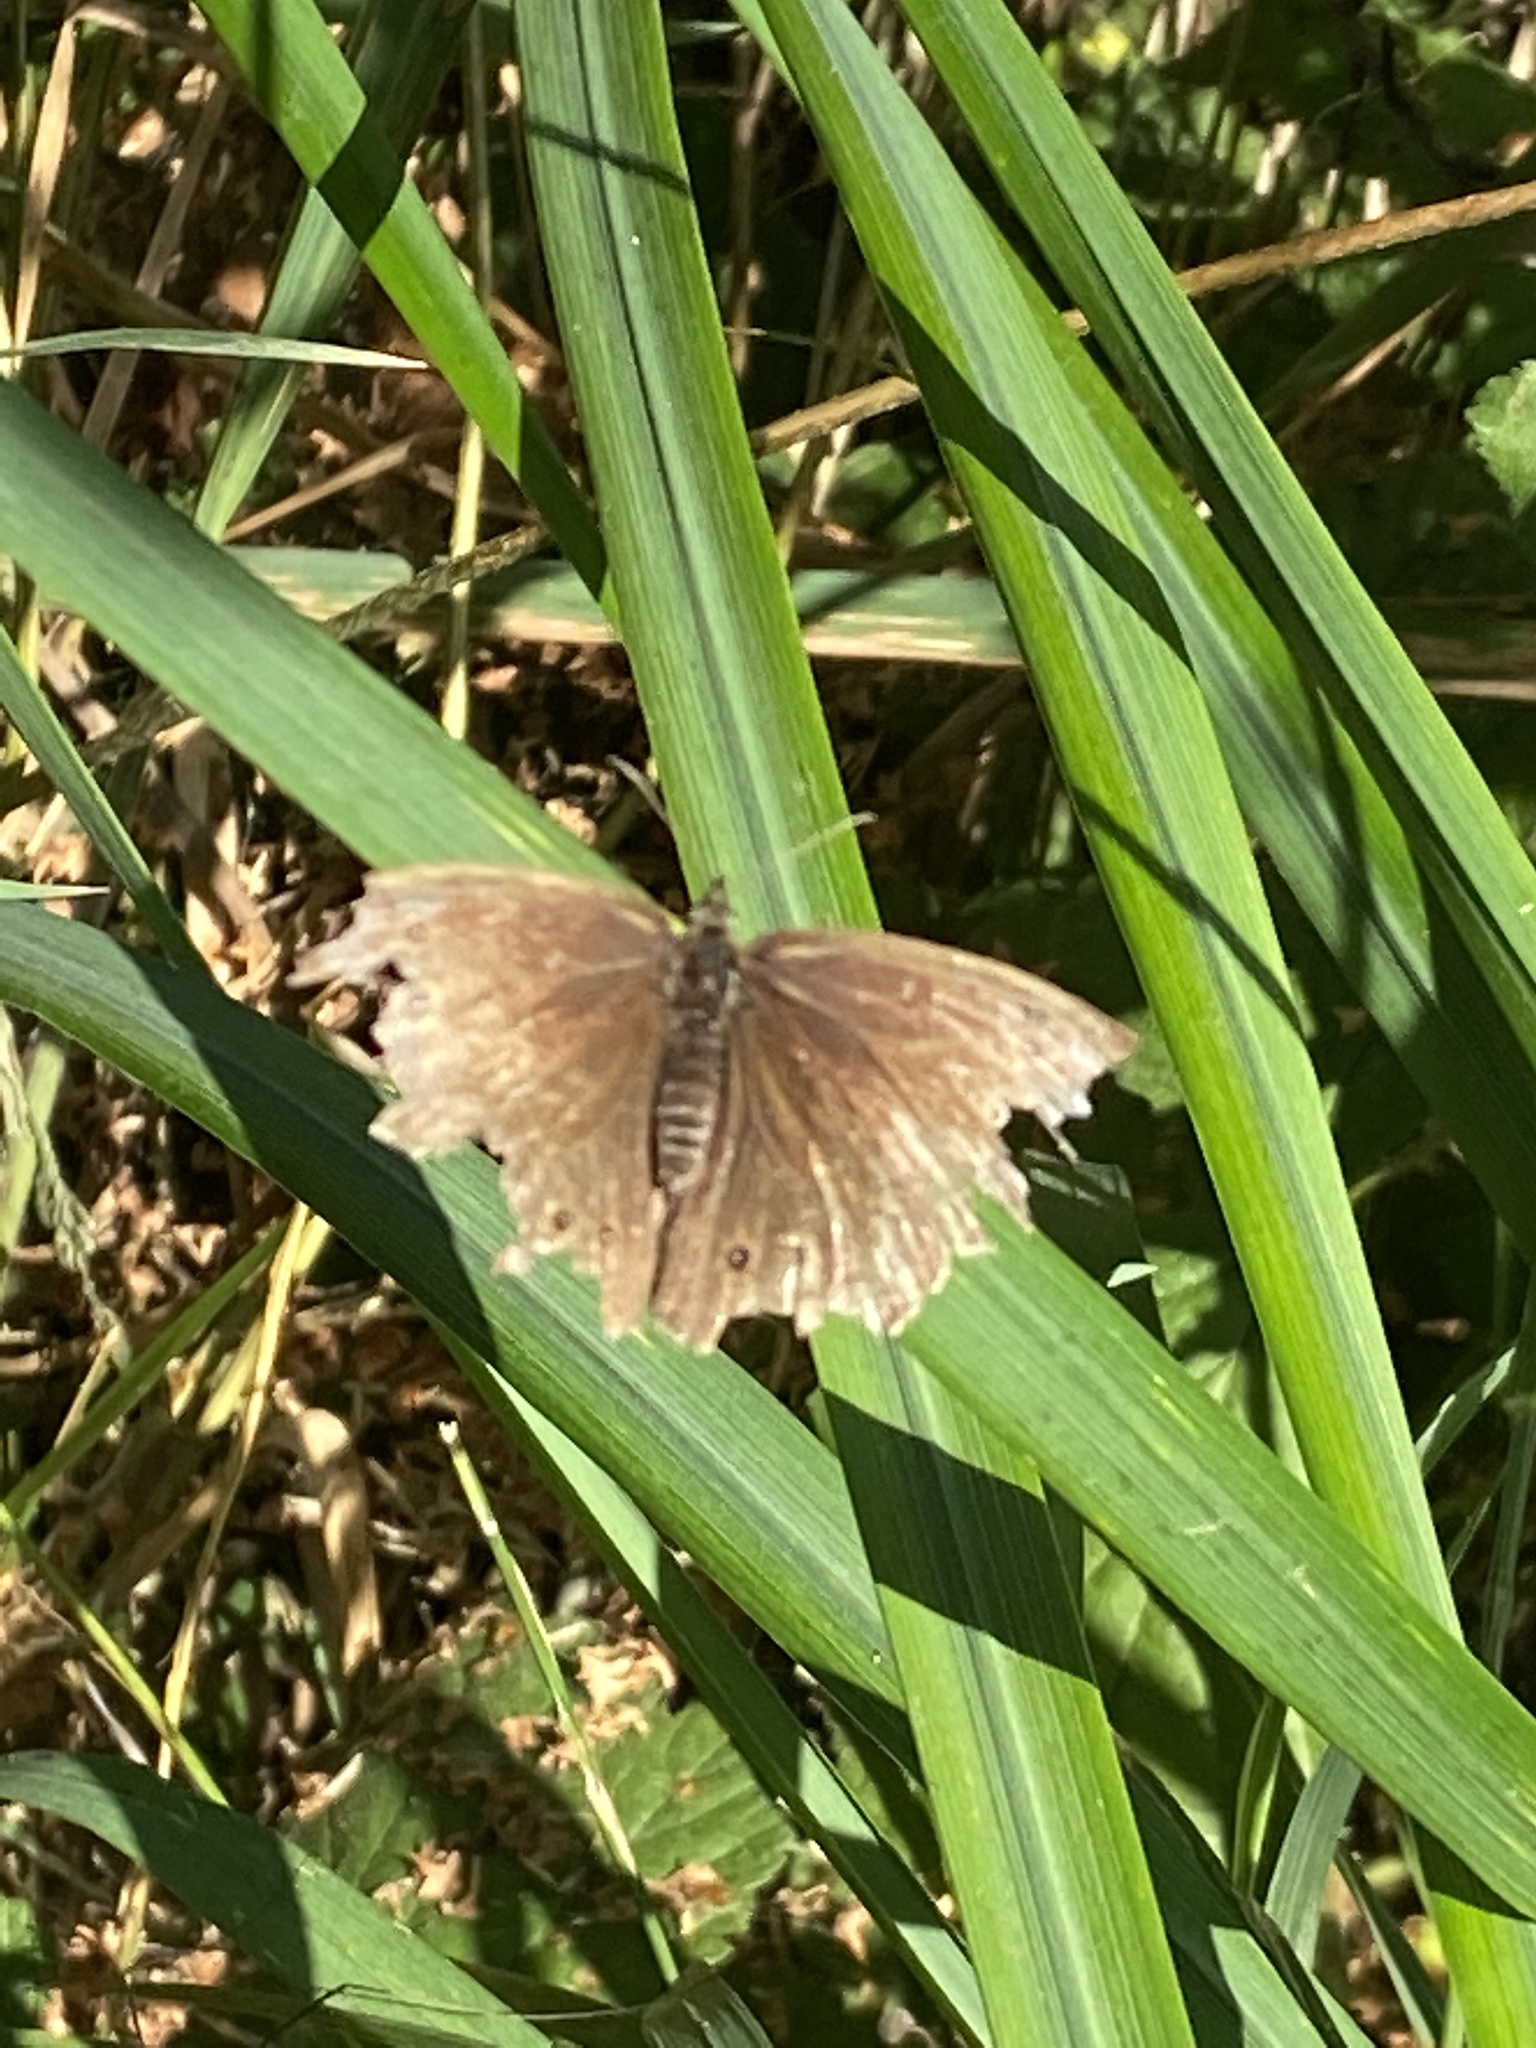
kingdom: Animalia
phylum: Arthropoda
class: Insecta
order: Lepidoptera
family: Nymphalidae
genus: Aphantopus
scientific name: Aphantopus hyperantus
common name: Ringlet
